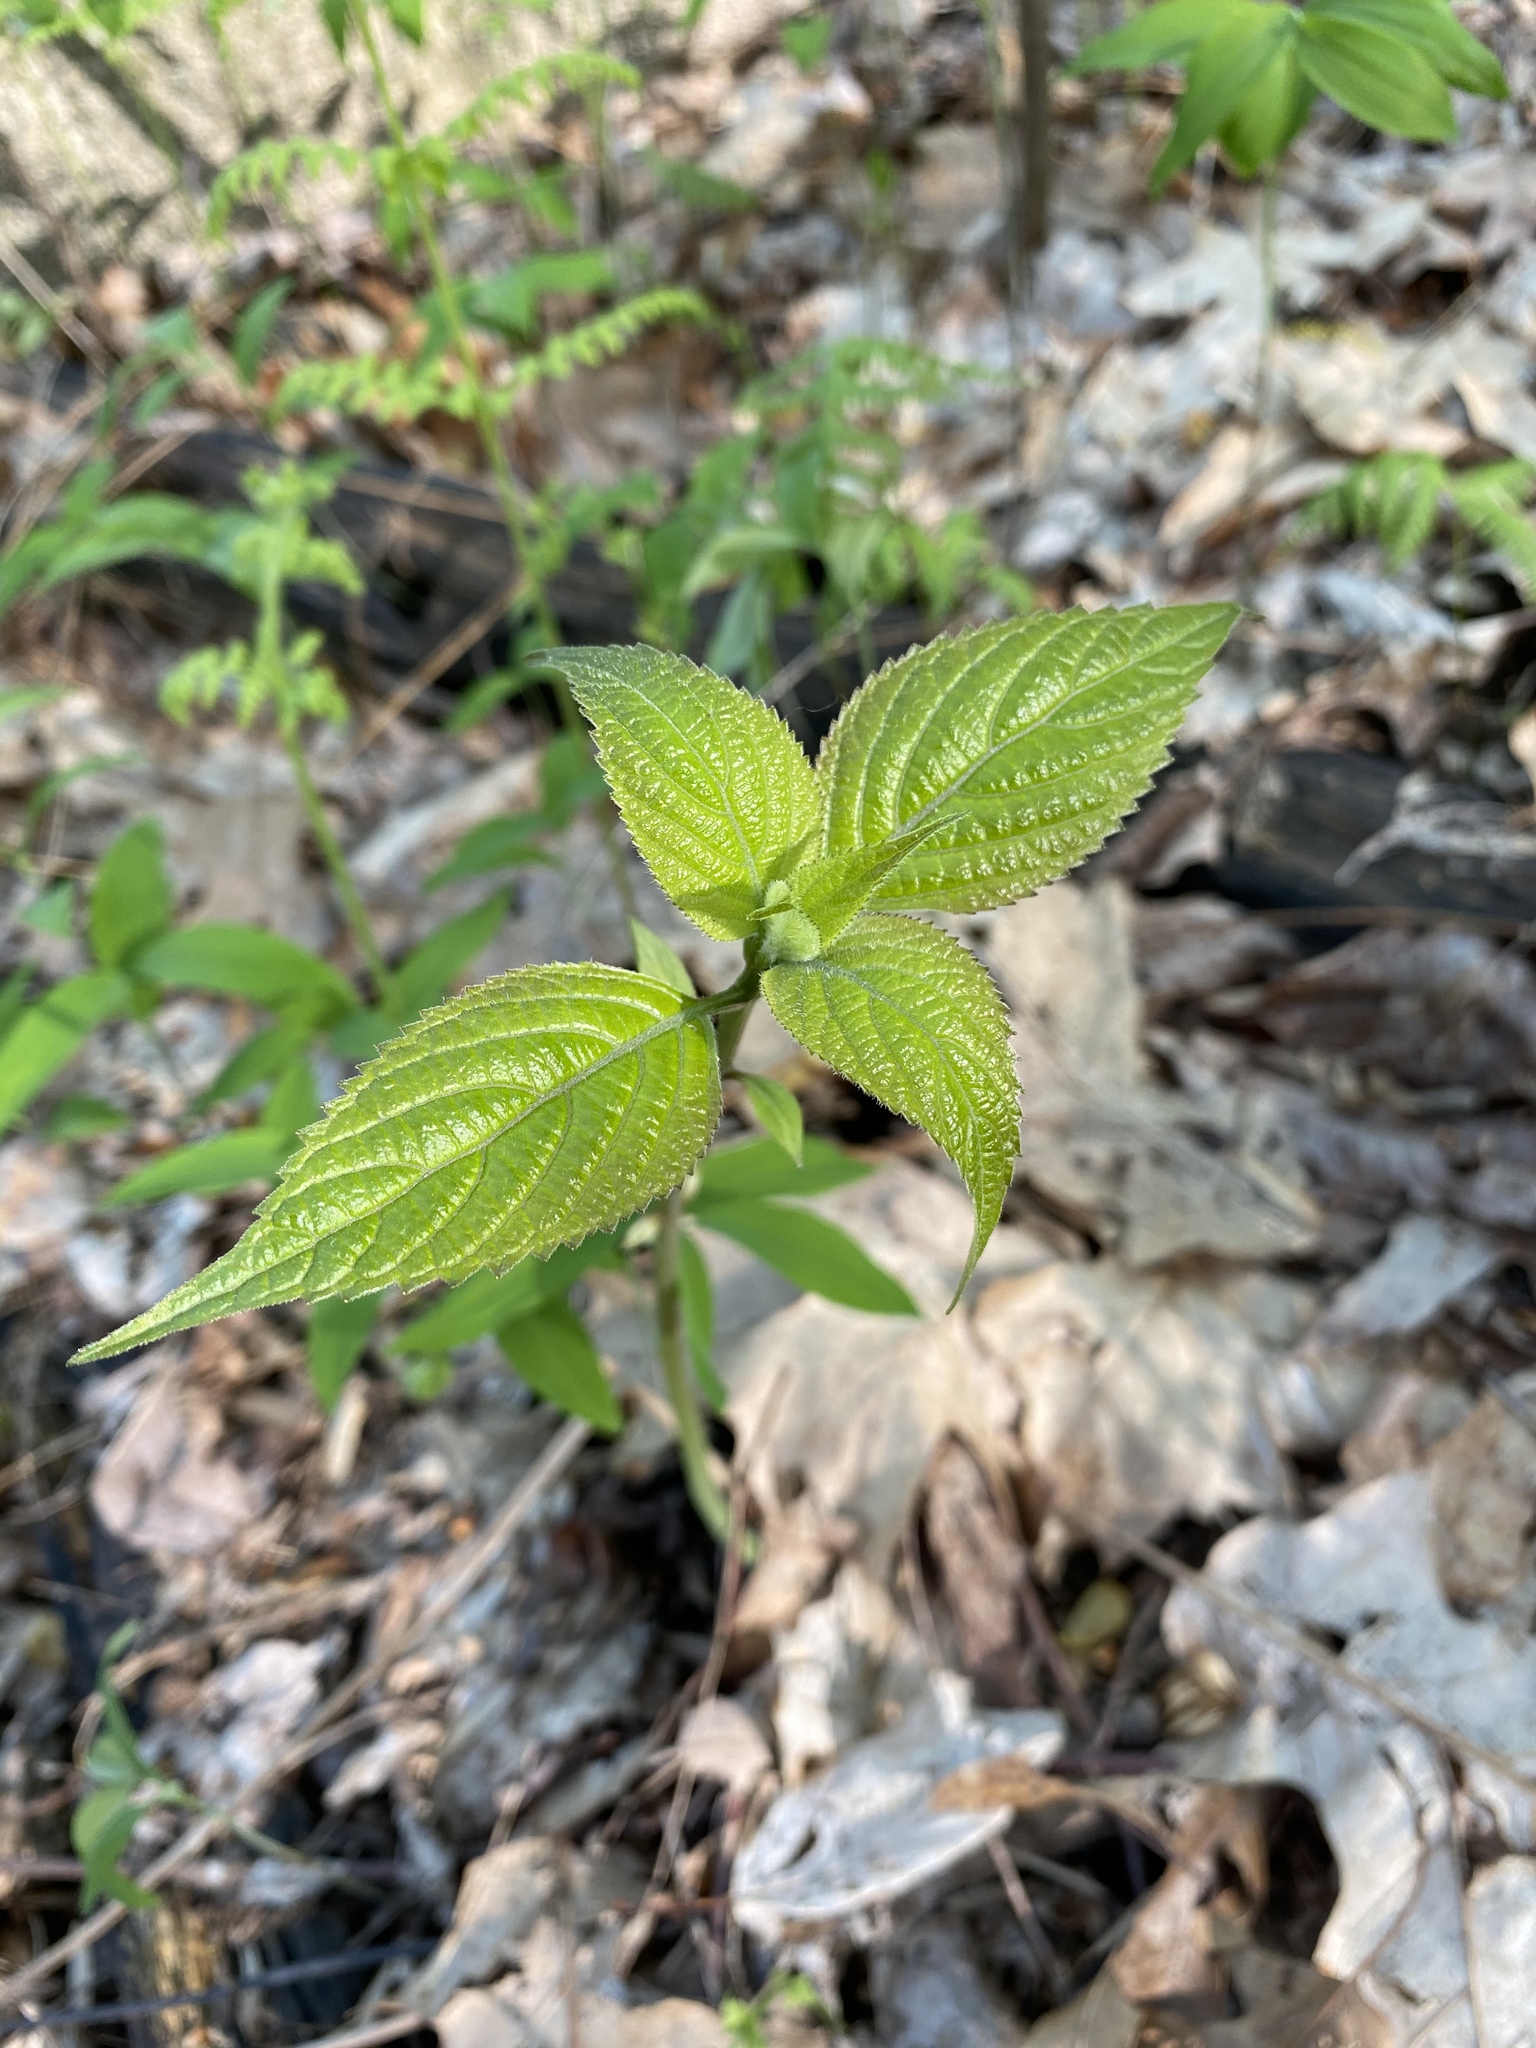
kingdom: Plantae
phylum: Tracheophyta
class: Magnoliopsida
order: Lamiales
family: Lamiaceae
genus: Collinsonia
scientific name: Collinsonia canadensis
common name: Northern horsebalm
